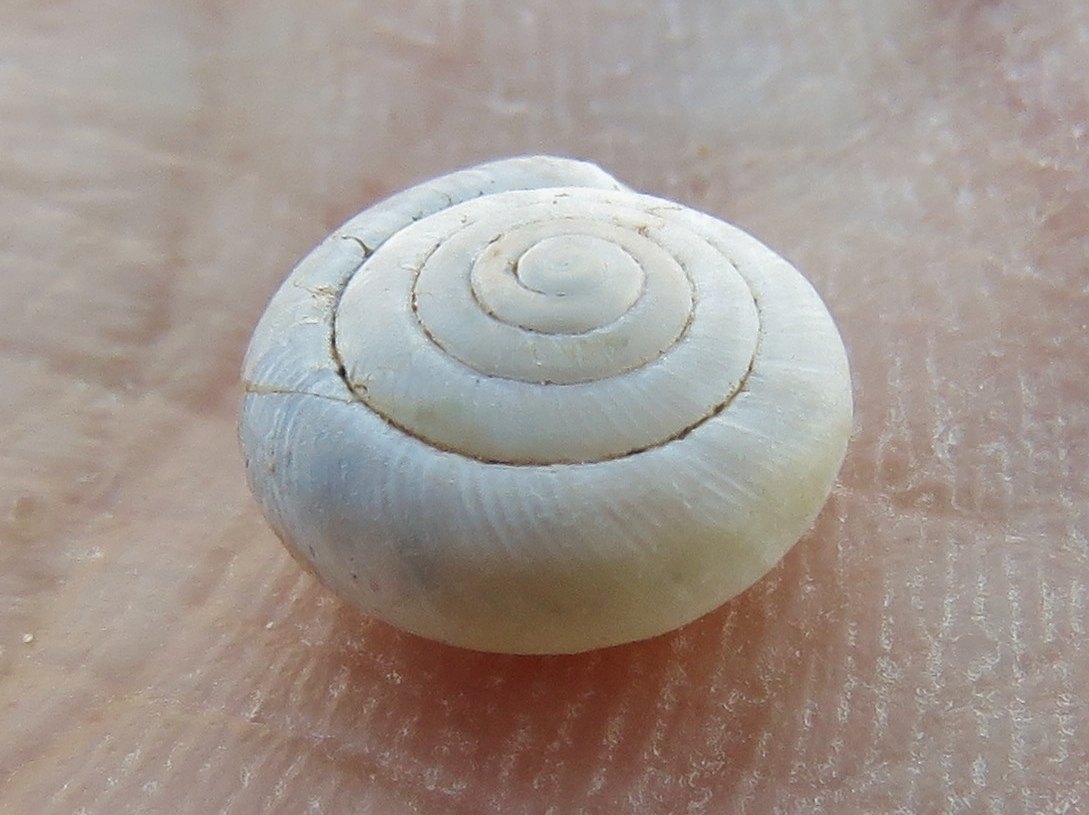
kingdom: Animalia
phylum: Mollusca
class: Gastropoda
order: Stylommatophora
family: Polygyridae
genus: Linisa
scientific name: Linisa texasiana
